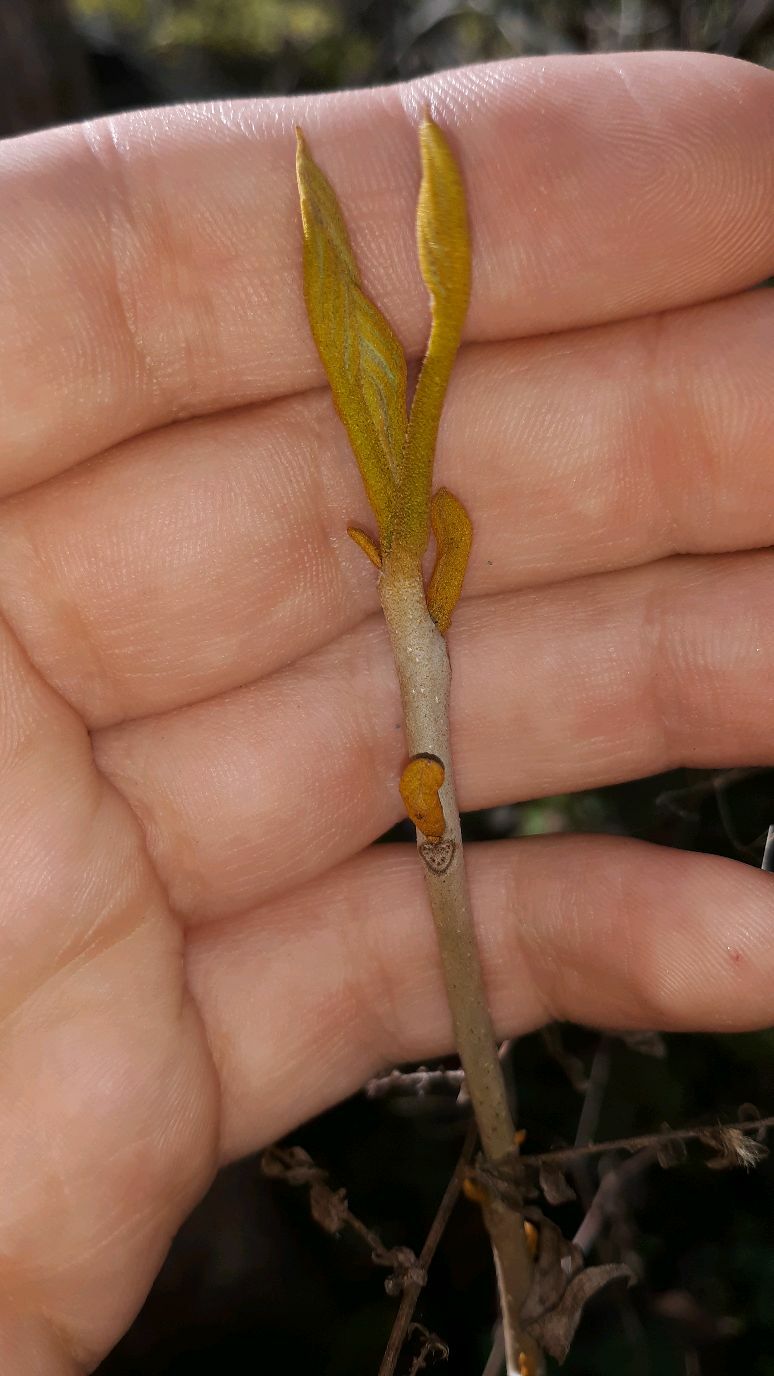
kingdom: Plantae
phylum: Tracheophyta
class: Magnoliopsida
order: Fagales
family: Juglandaceae
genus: Carya
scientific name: Carya cordiformis
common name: Bitternut hickory
